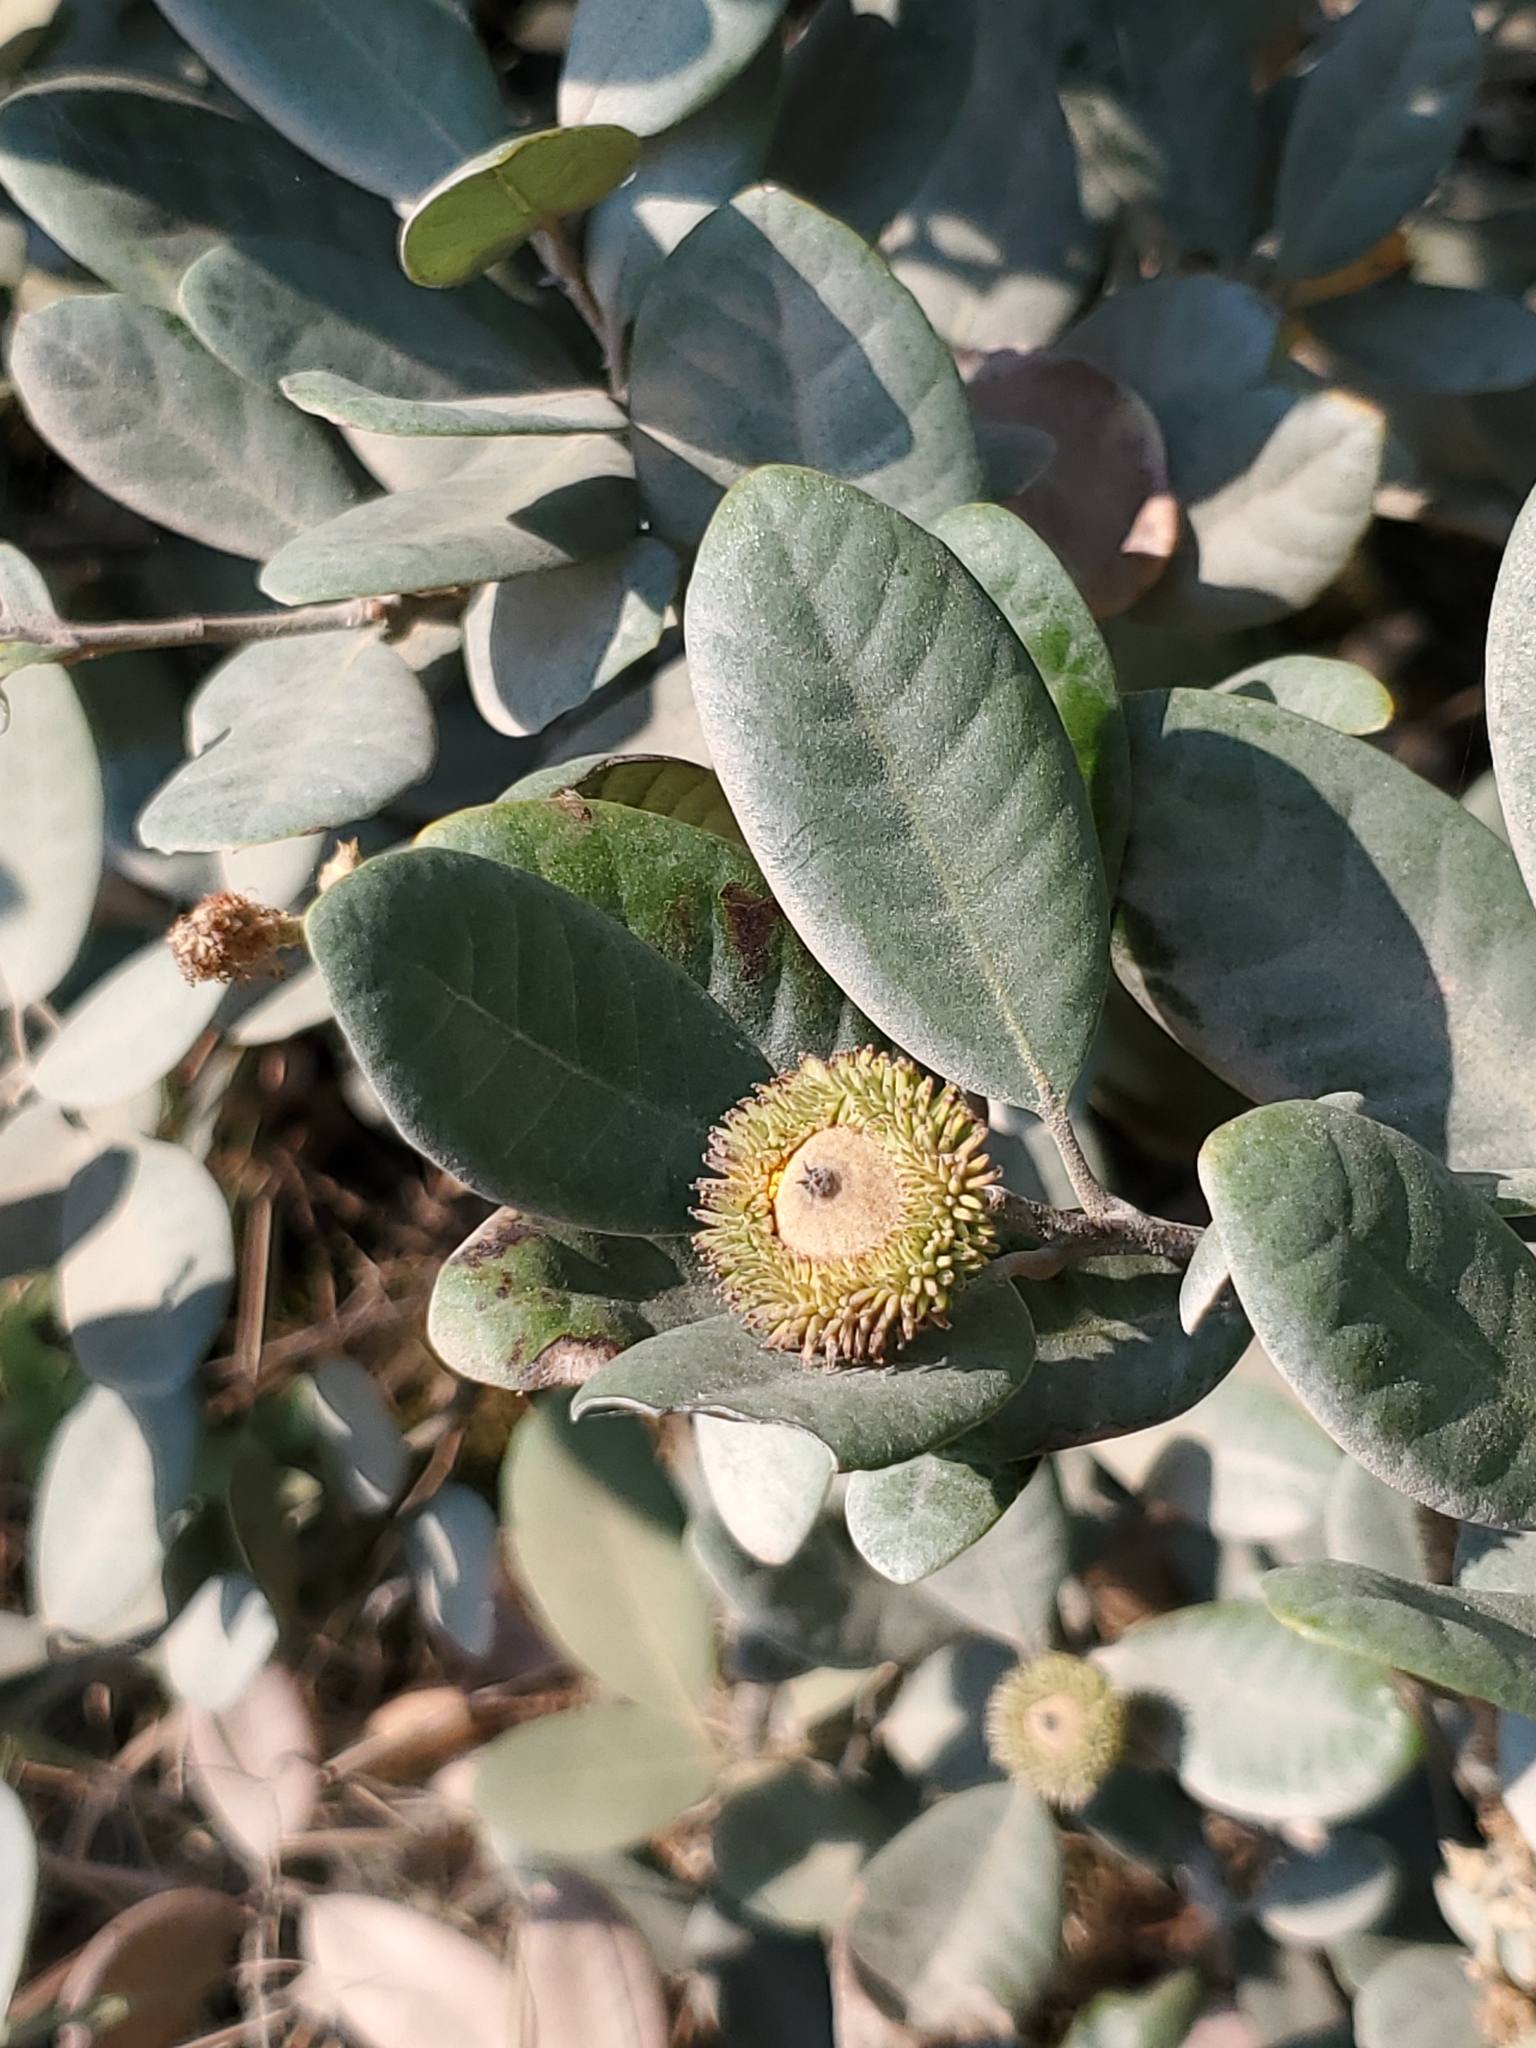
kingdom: Plantae
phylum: Tracheophyta
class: Magnoliopsida
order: Fagales
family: Fagaceae
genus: Notholithocarpus
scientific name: Notholithocarpus densiflorus
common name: Tan bark oak
